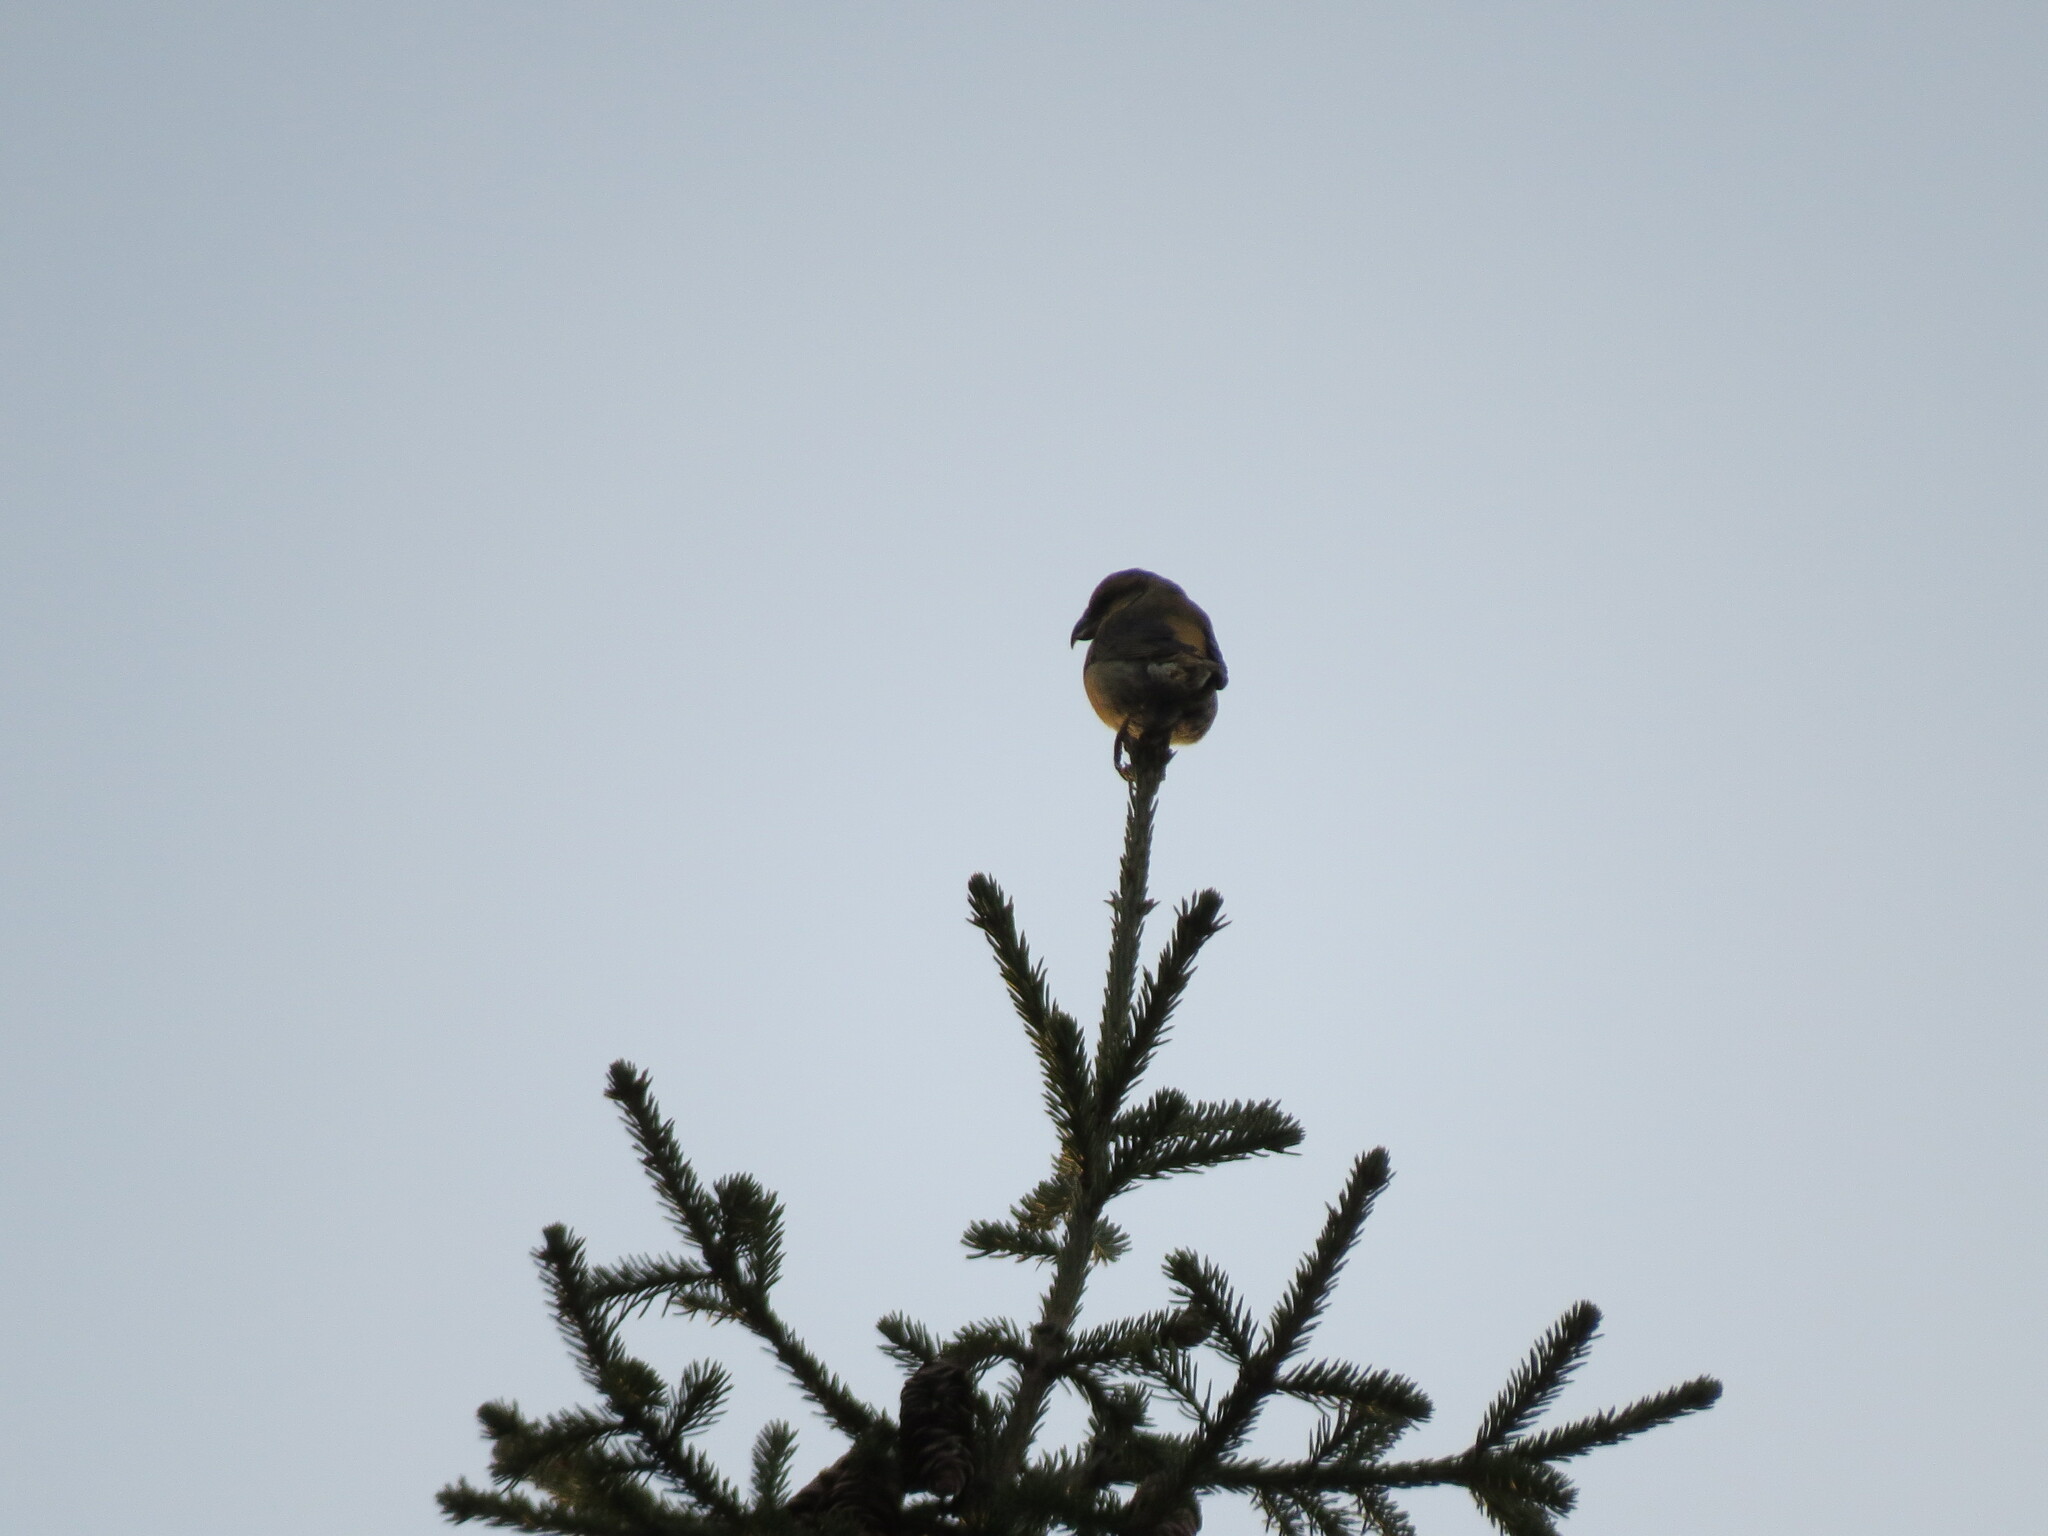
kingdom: Animalia
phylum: Chordata
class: Aves
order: Passeriformes
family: Fringillidae
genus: Loxia
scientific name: Loxia curvirostra
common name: Red crossbill
